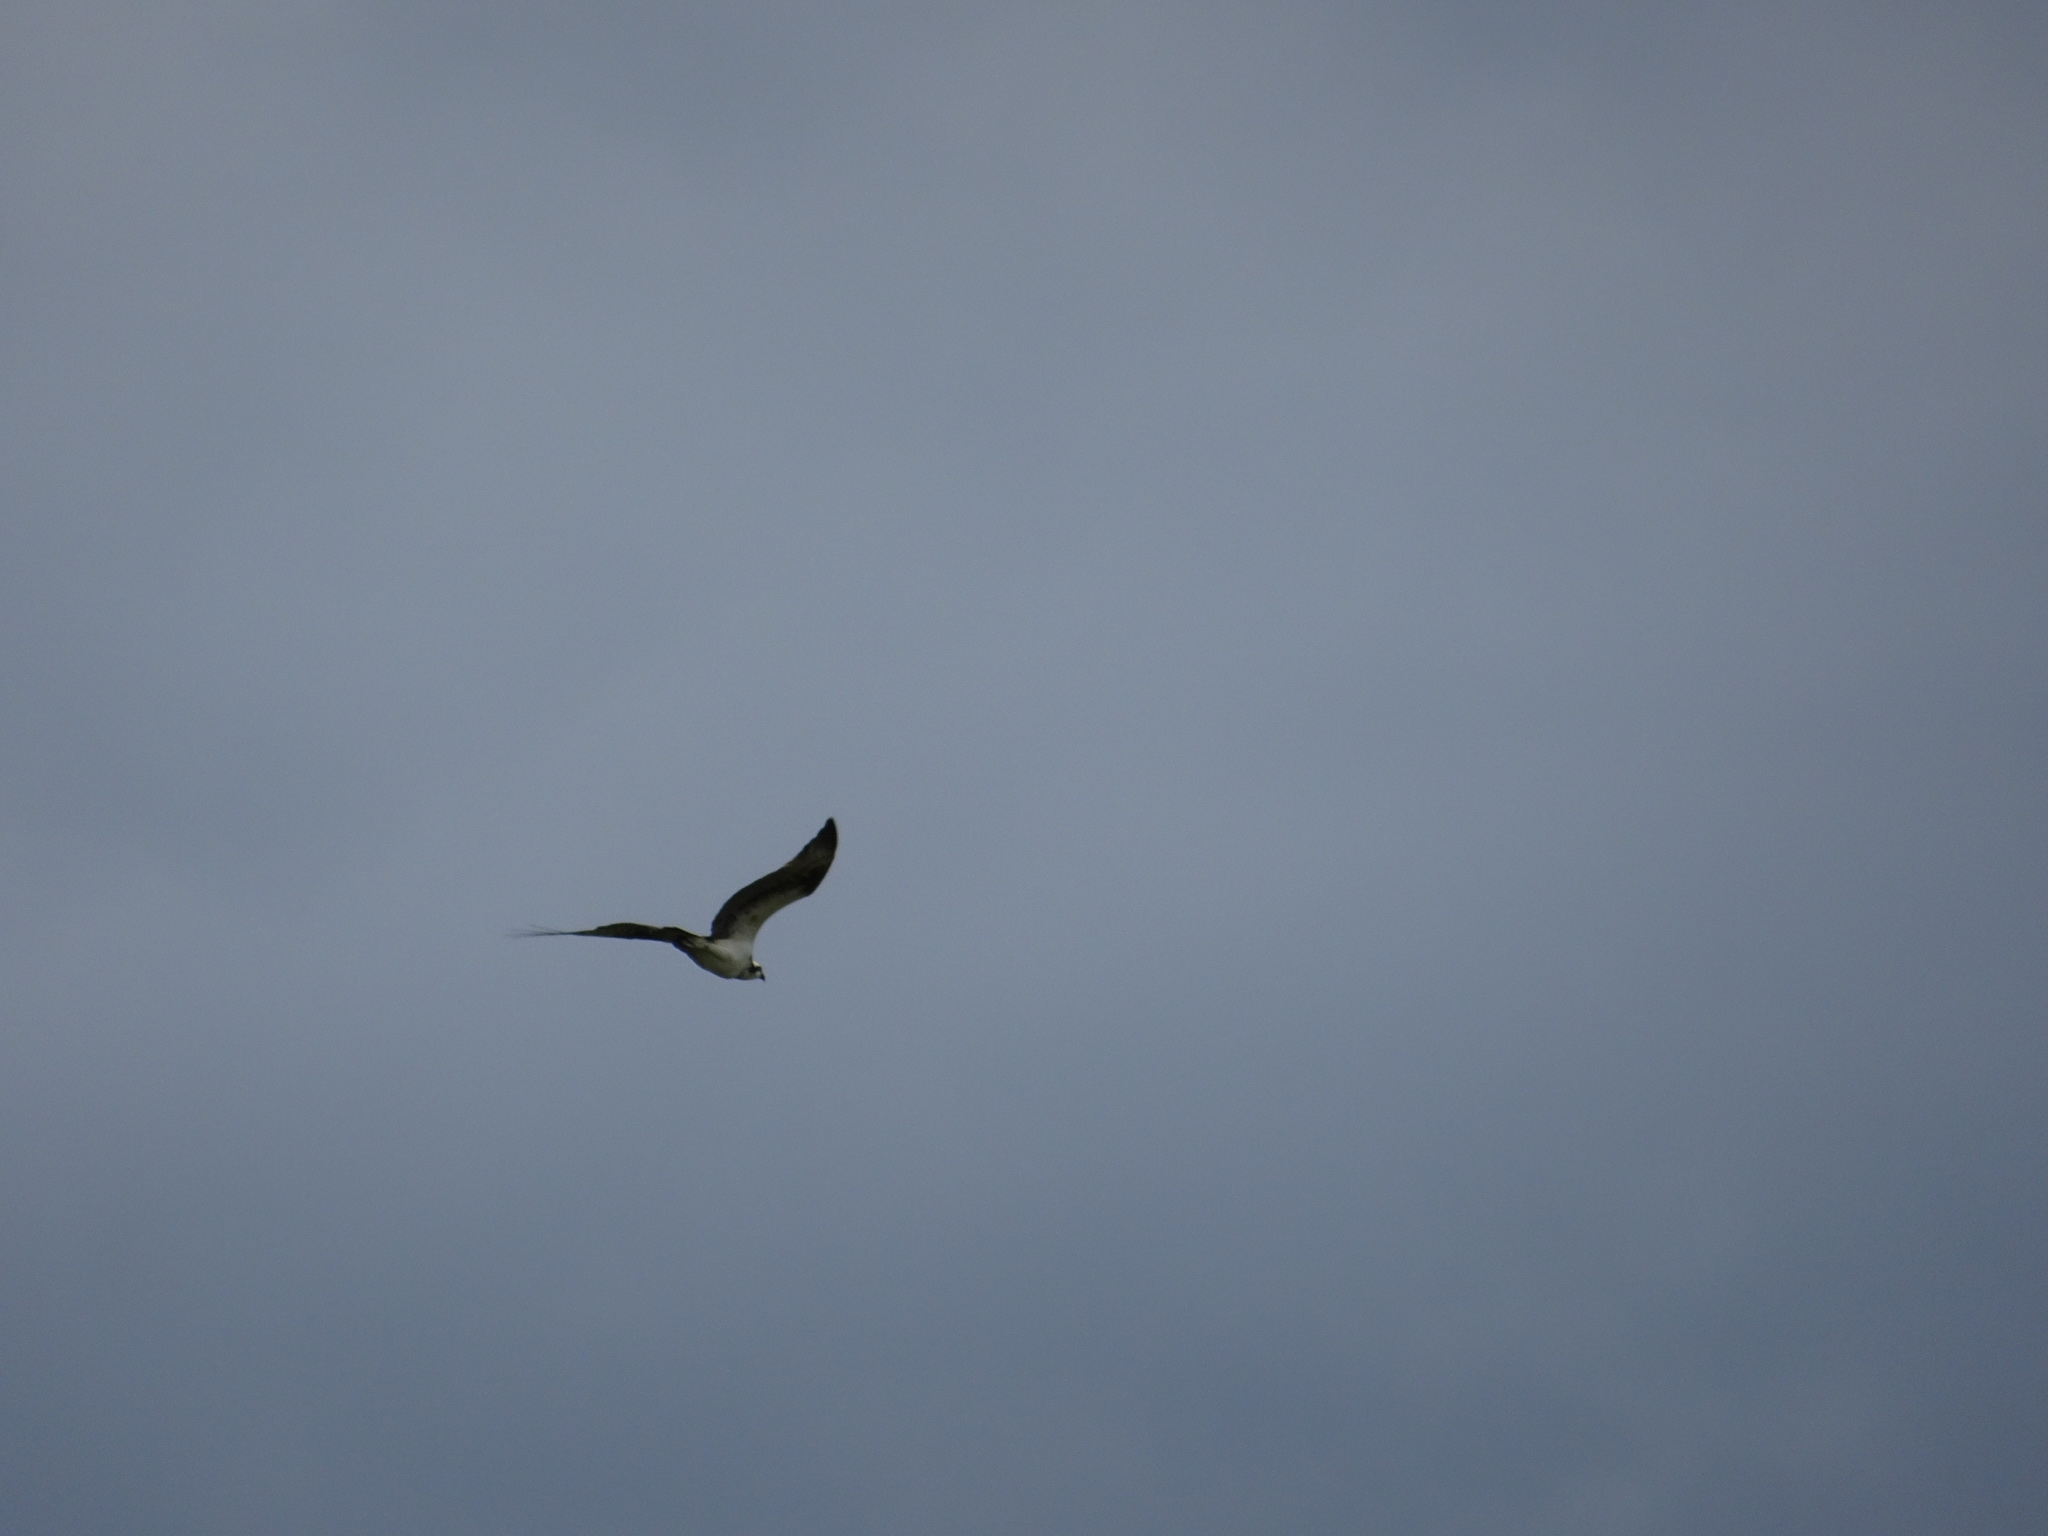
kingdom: Animalia
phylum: Chordata
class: Aves
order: Accipitriformes
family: Pandionidae
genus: Pandion
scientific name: Pandion haliaetus
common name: Osprey
